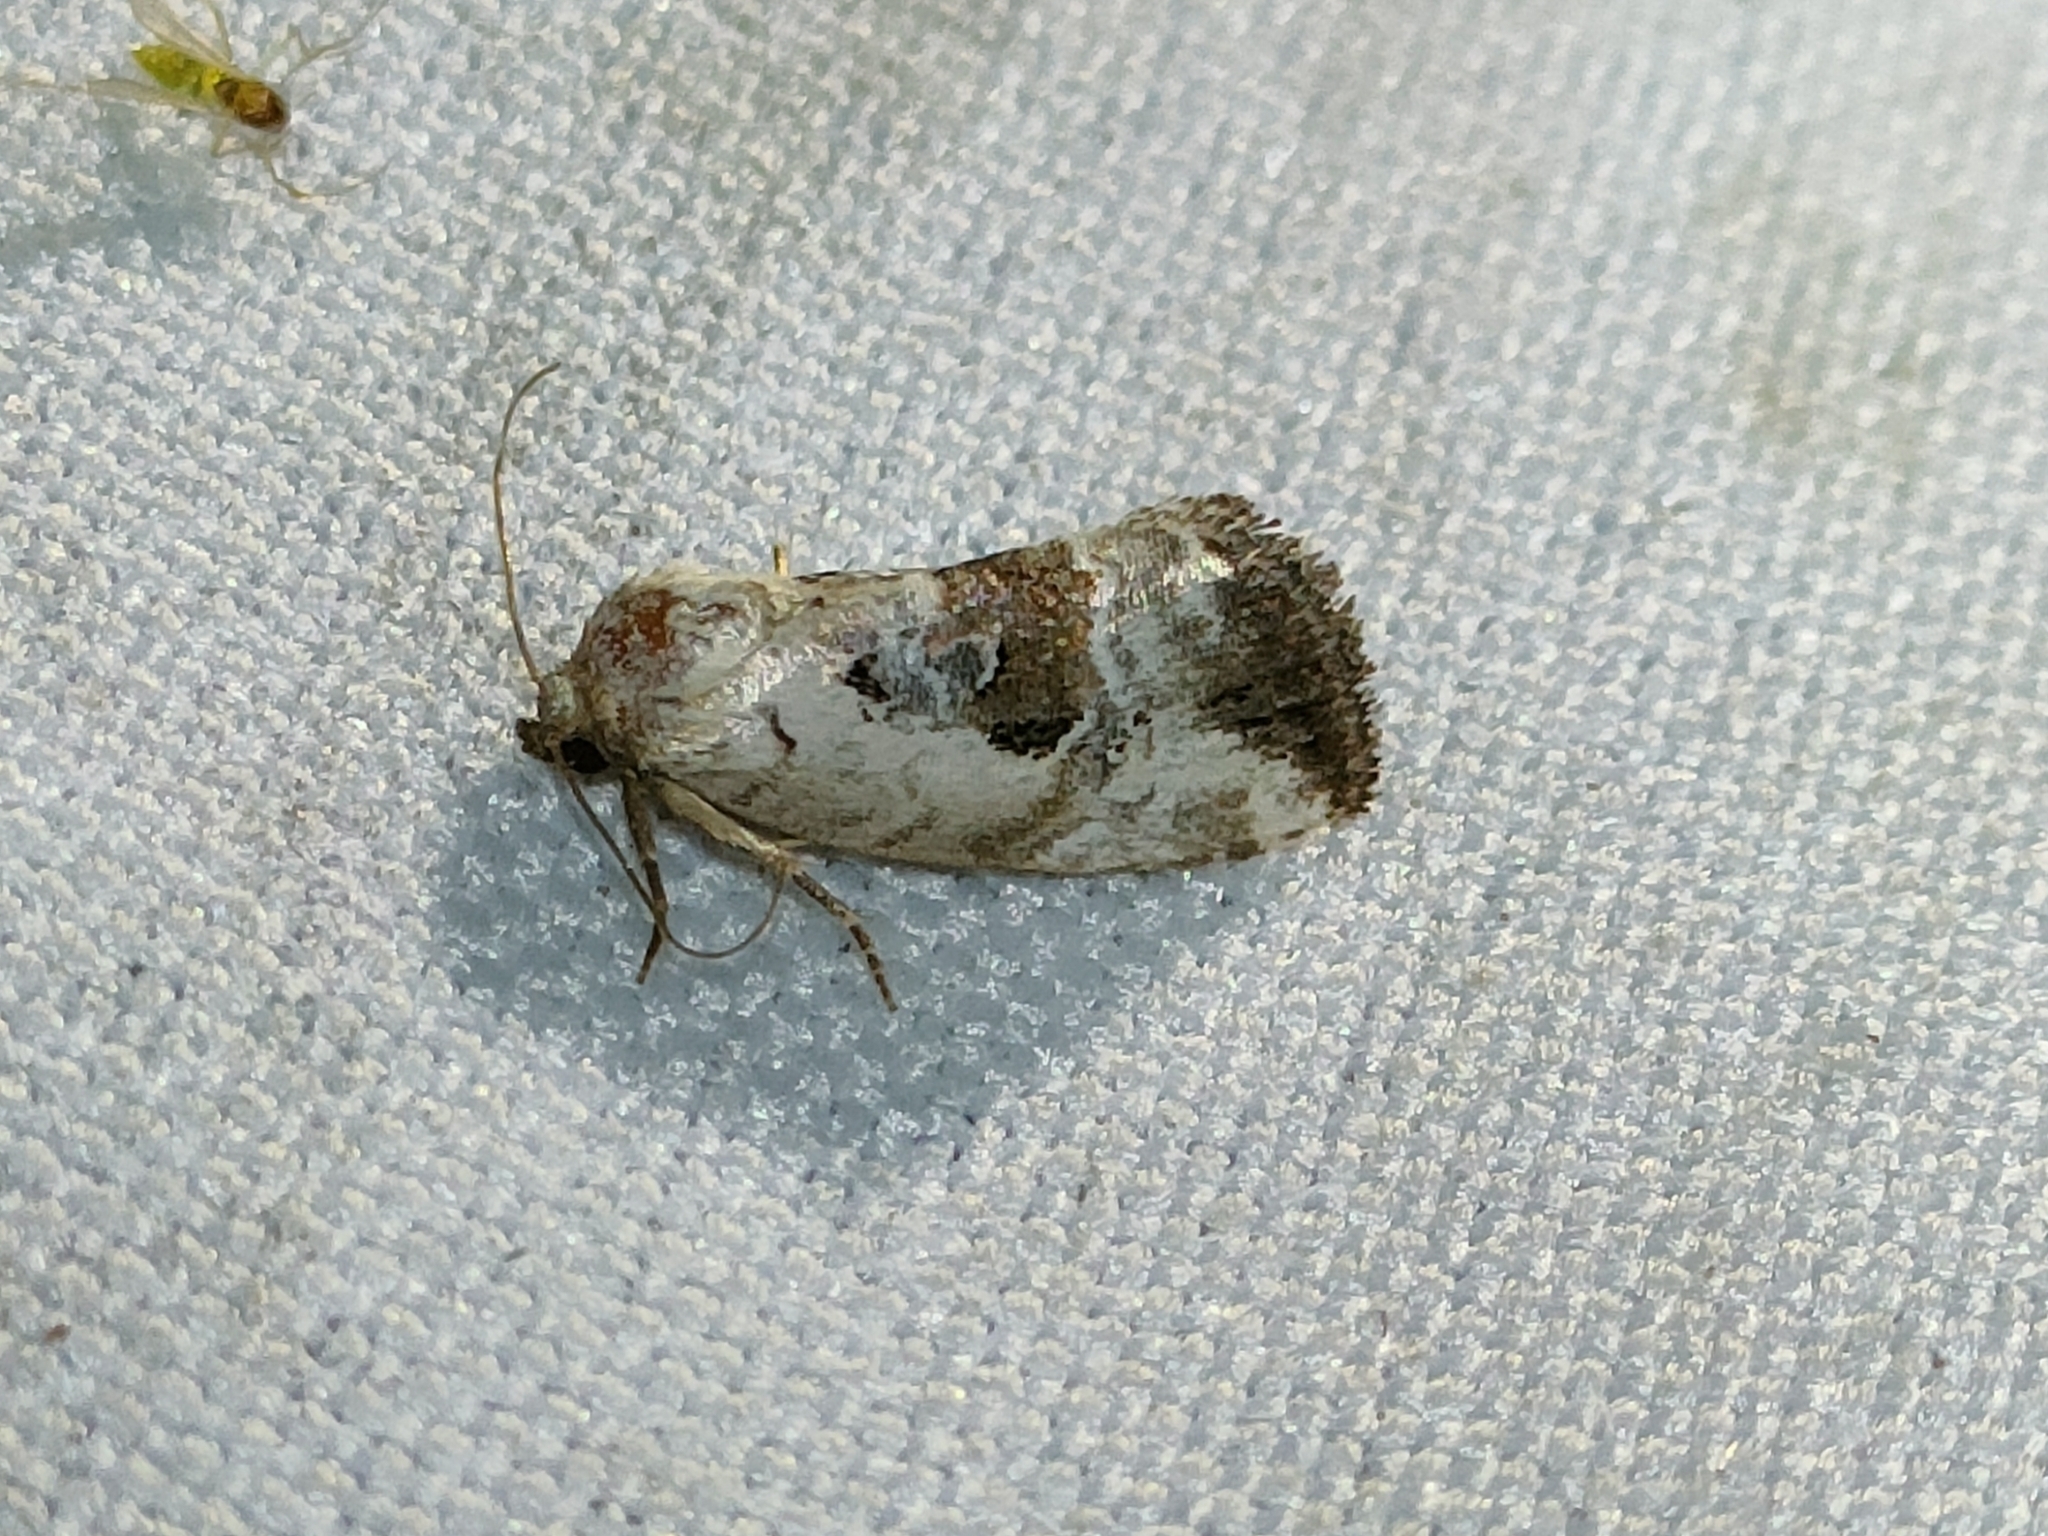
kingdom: Animalia
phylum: Arthropoda
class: Insecta
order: Lepidoptera
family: Noctuidae
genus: Elaphria
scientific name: Elaphria venustula
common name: Rosy marbled
